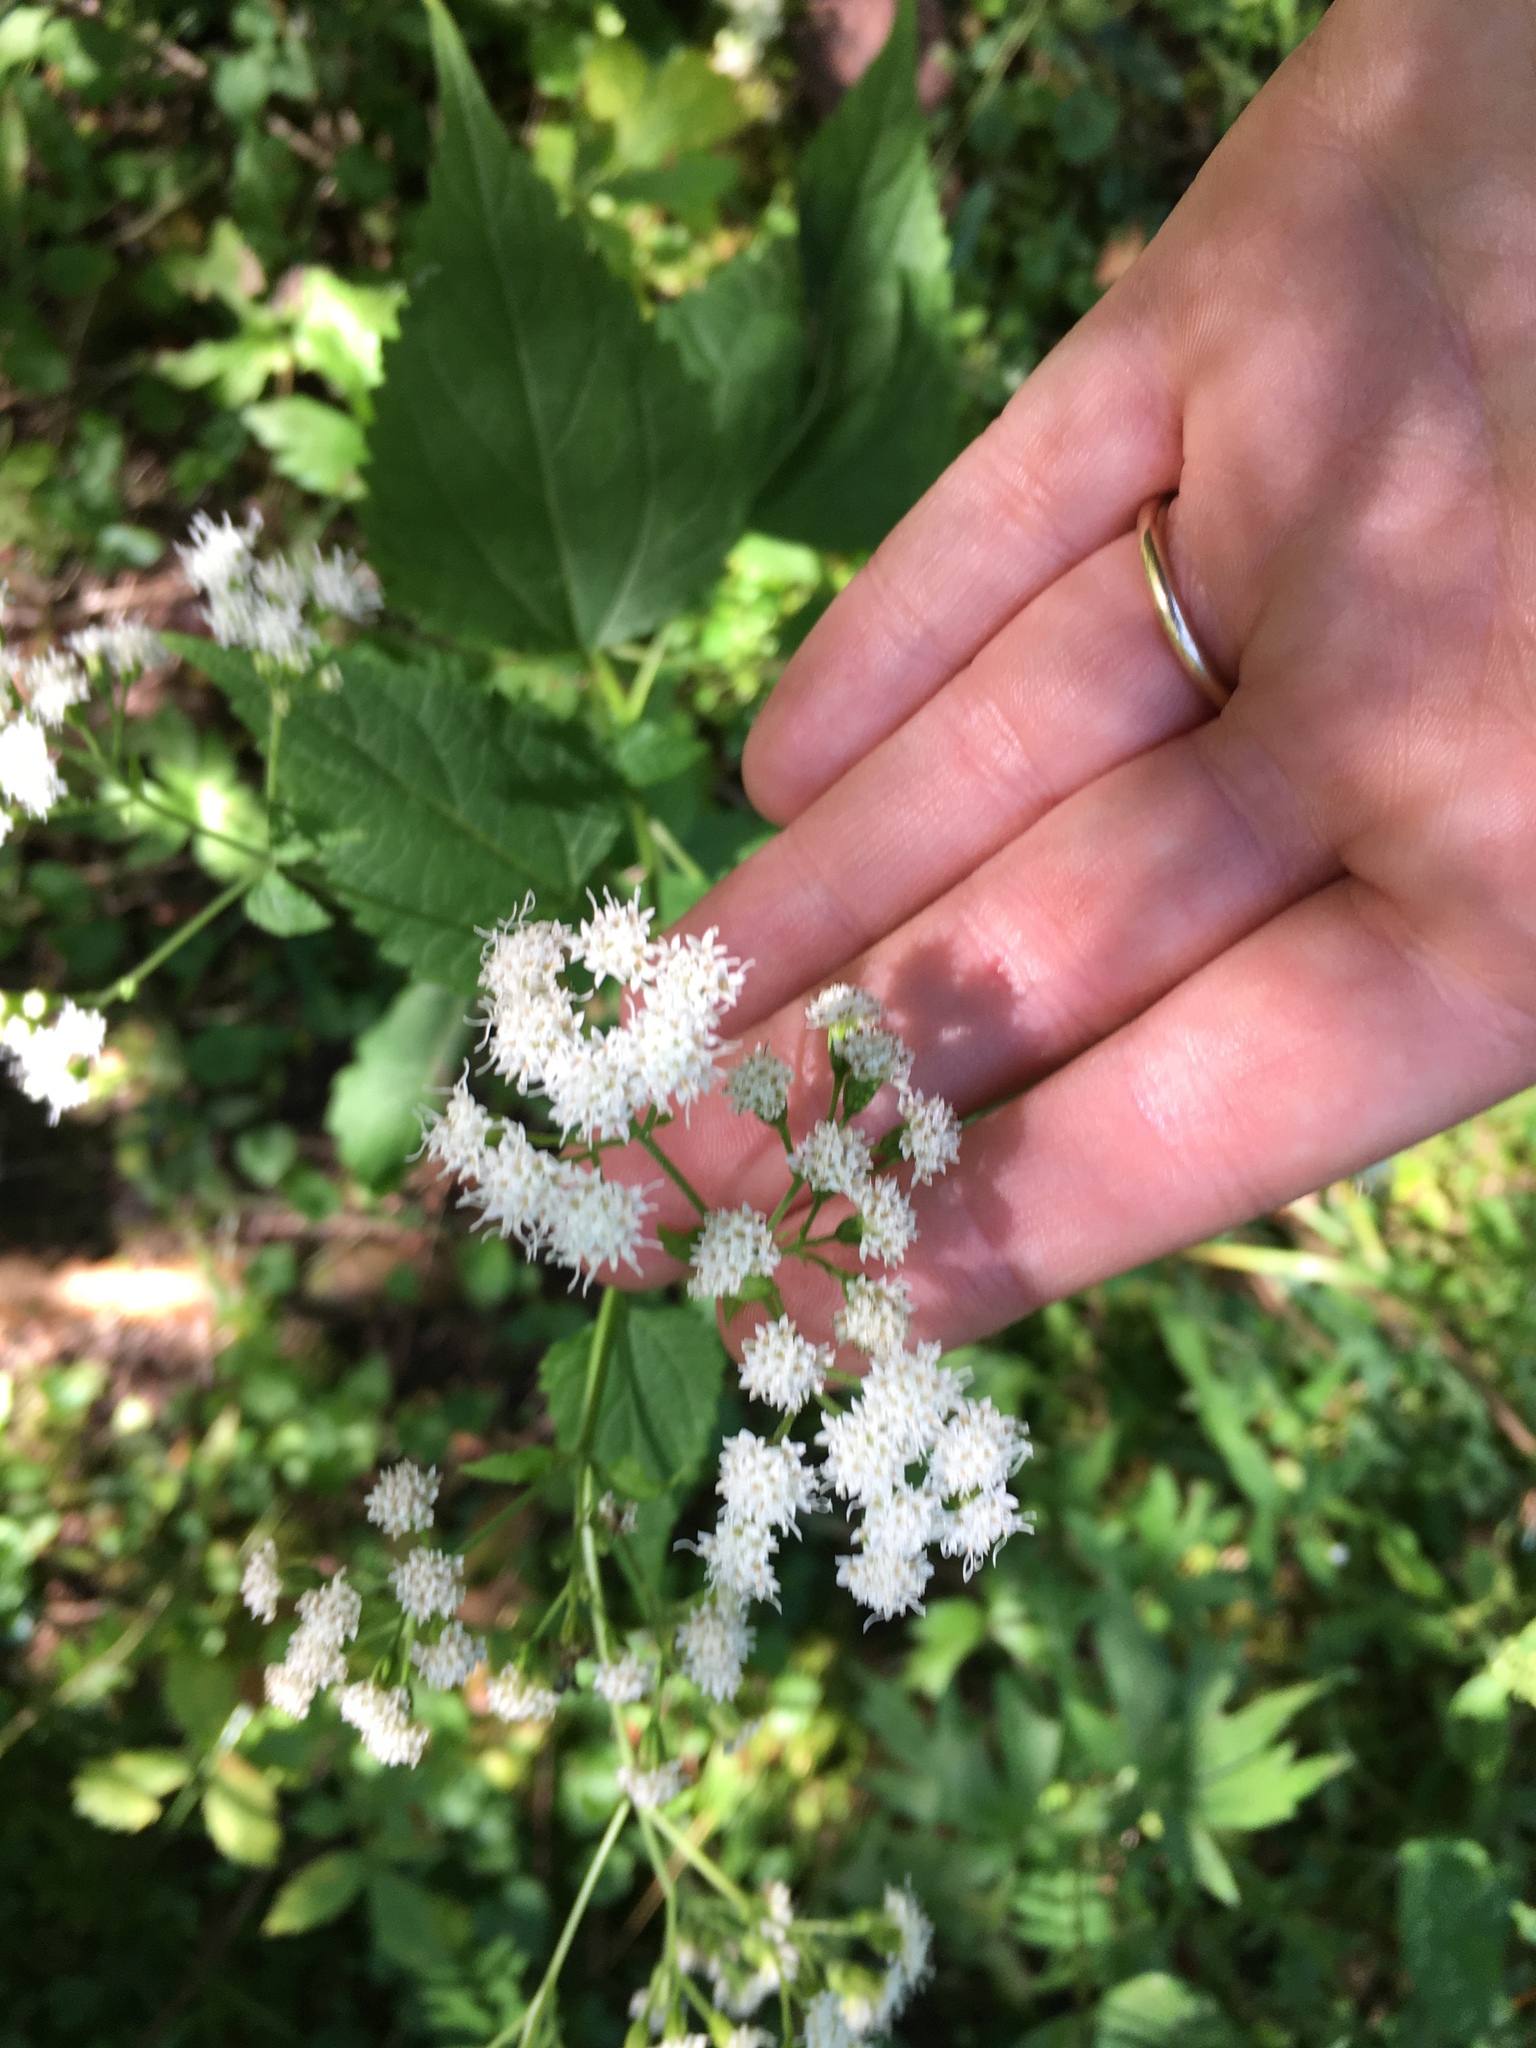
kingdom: Plantae
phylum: Tracheophyta
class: Magnoliopsida
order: Asterales
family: Asteraceae
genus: Ageratina
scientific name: Ageratina altissima
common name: White snakeroot
